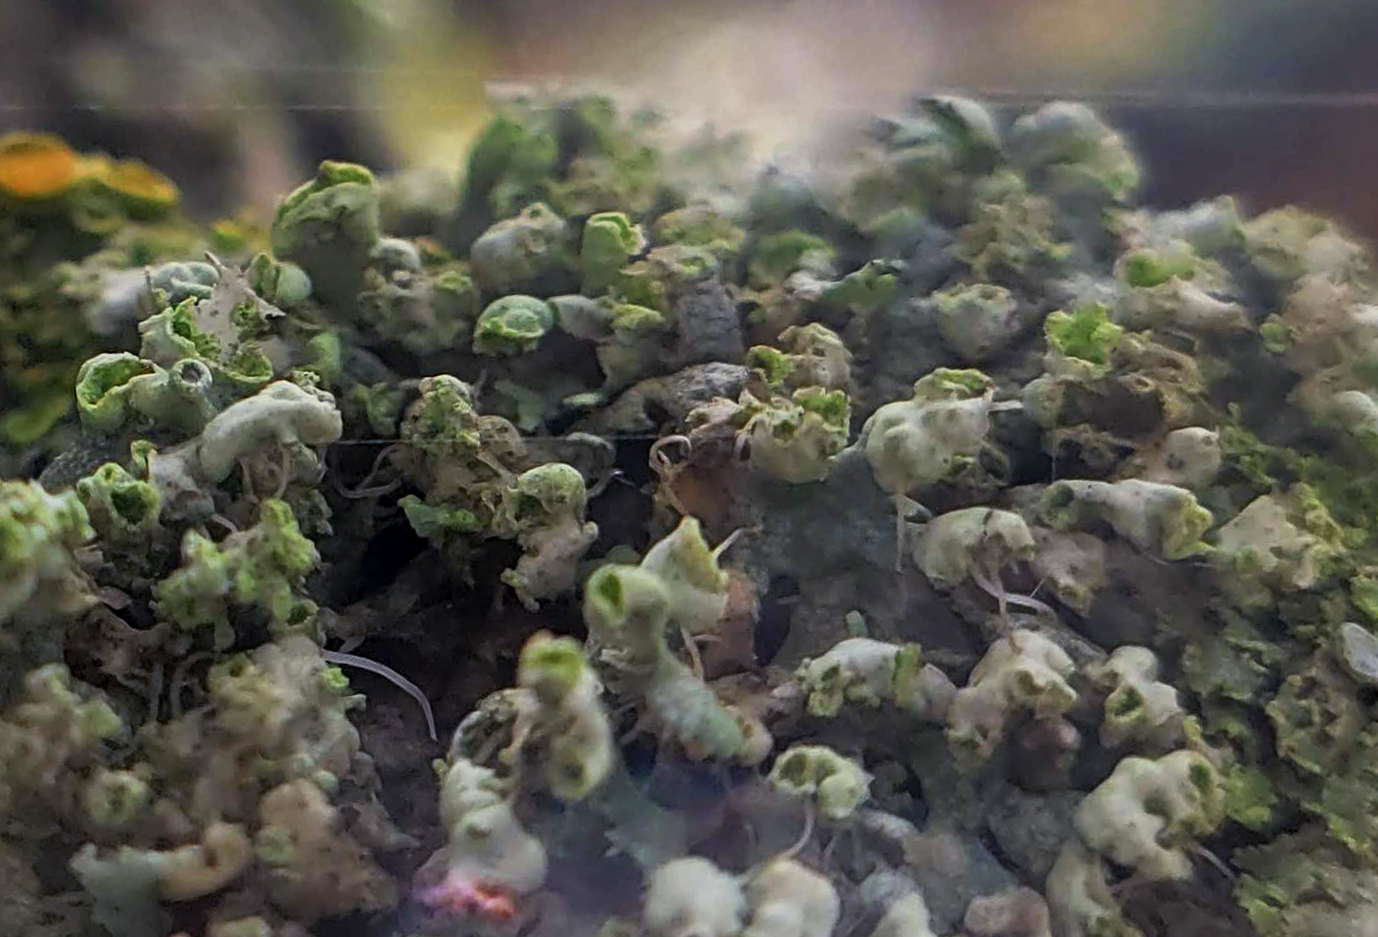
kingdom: Fungi
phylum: Ascomycota
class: Lecanoromycetes
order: Caliciales
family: Physciaceae
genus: Physcia
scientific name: Physcia adscendens
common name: Hooded rosette lichen
